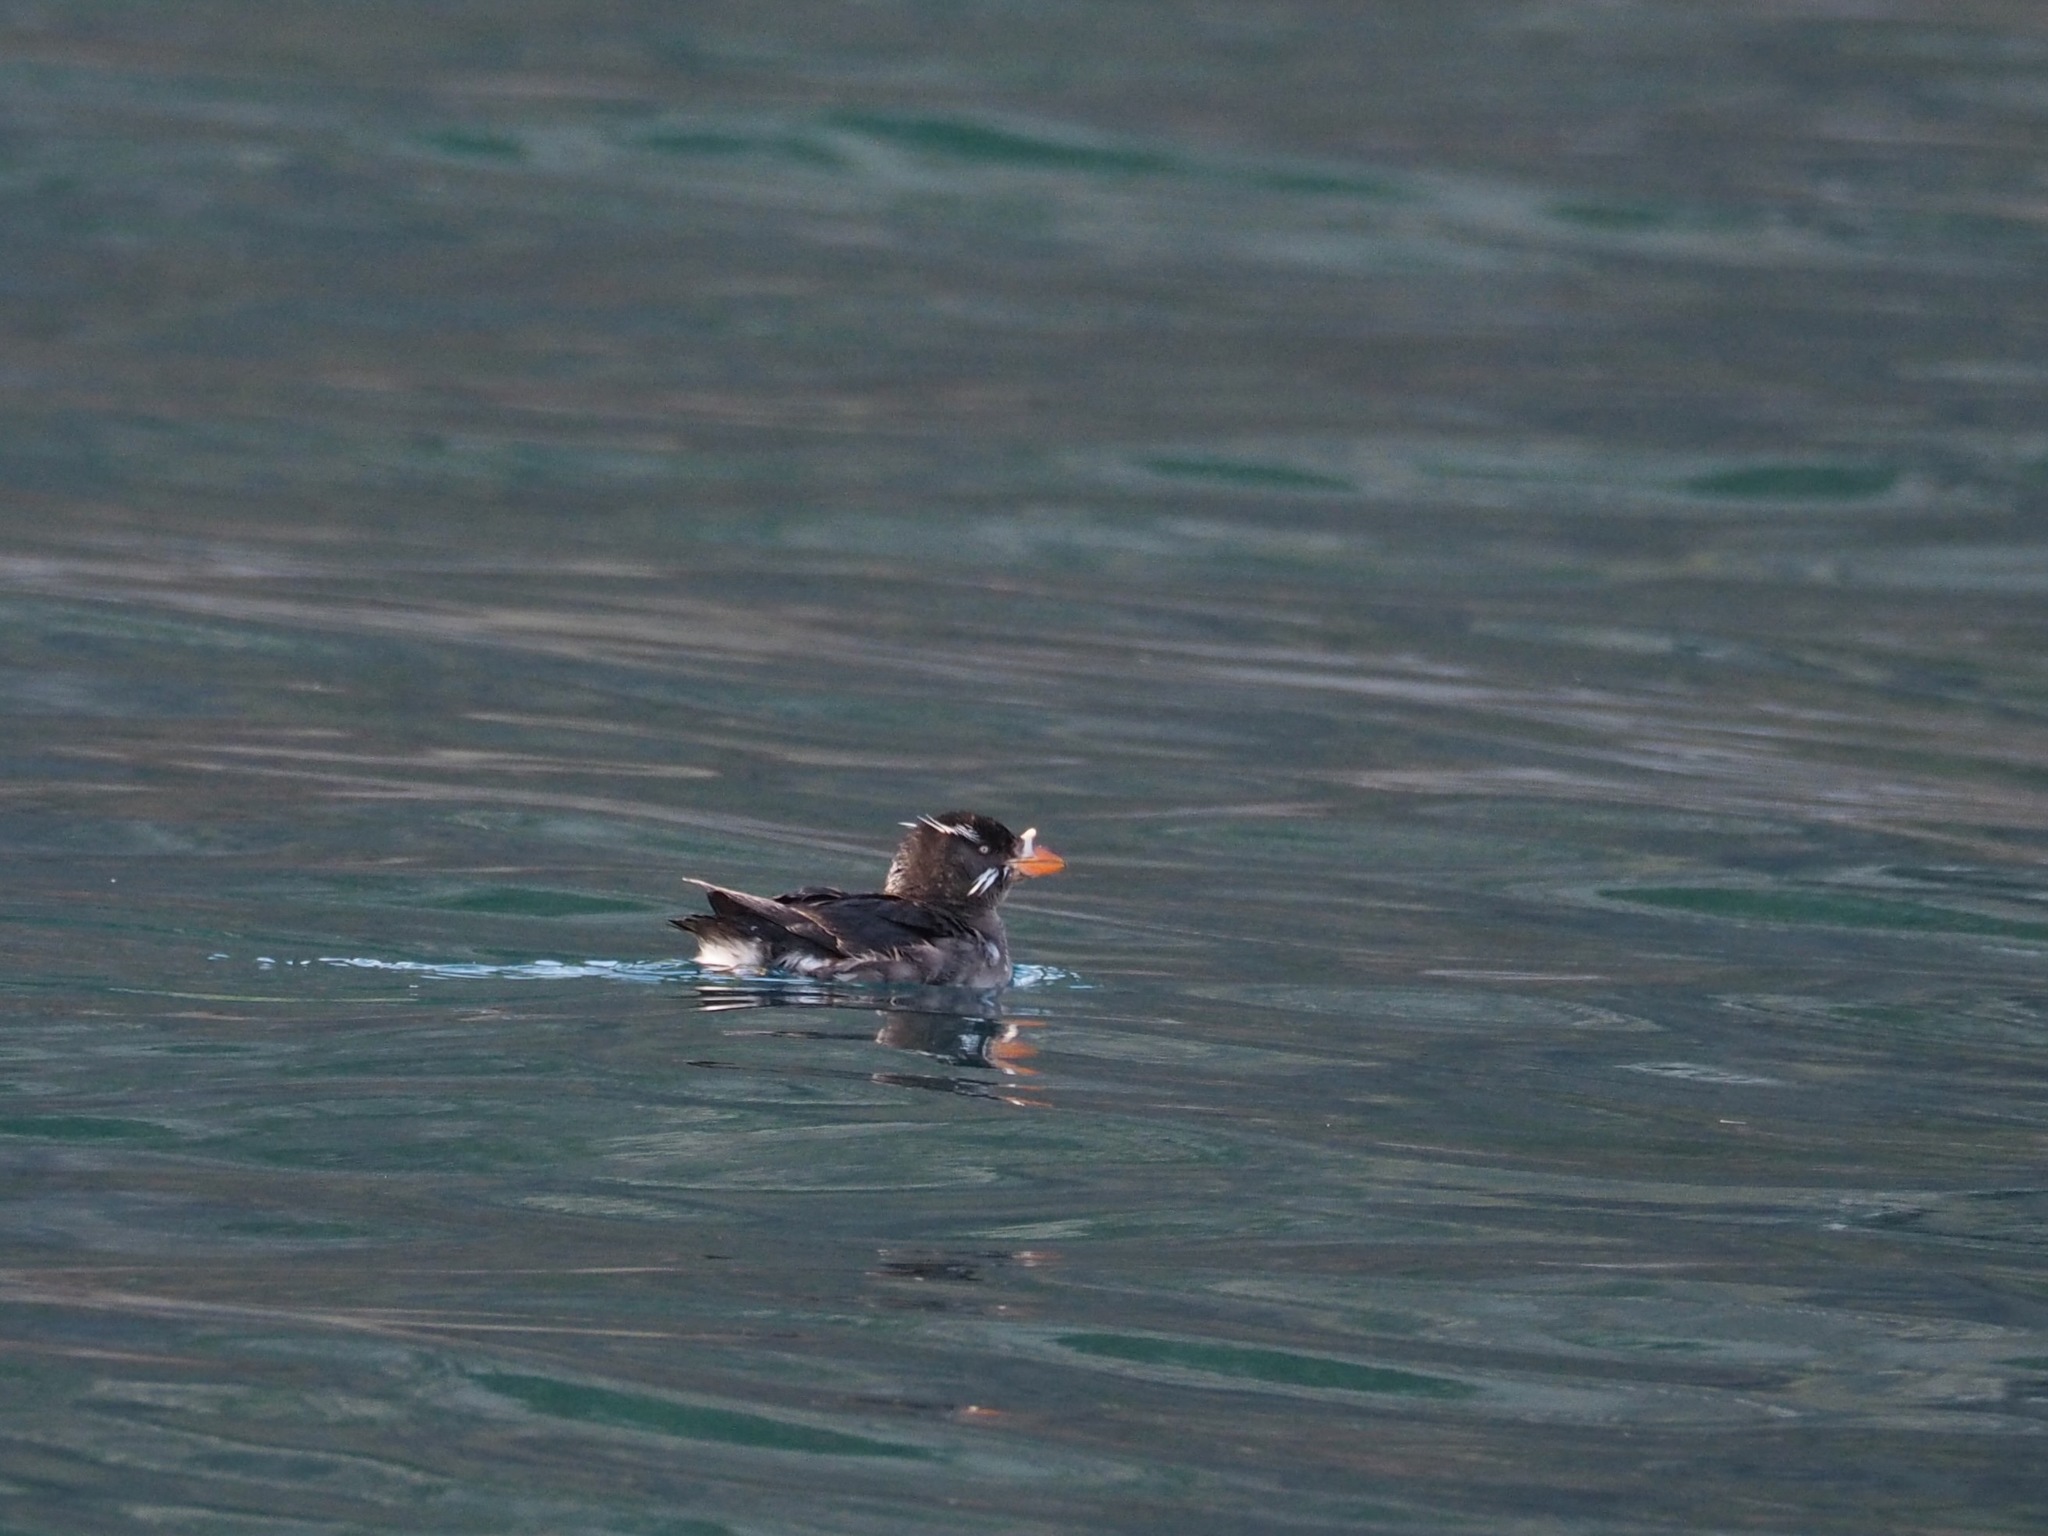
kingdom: Animalia
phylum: Chordata
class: Aves
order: Charadriiformes
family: Alcidae
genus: Cerorhinca
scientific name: Cerorhinca monocerata
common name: Rhinoceros auklet
